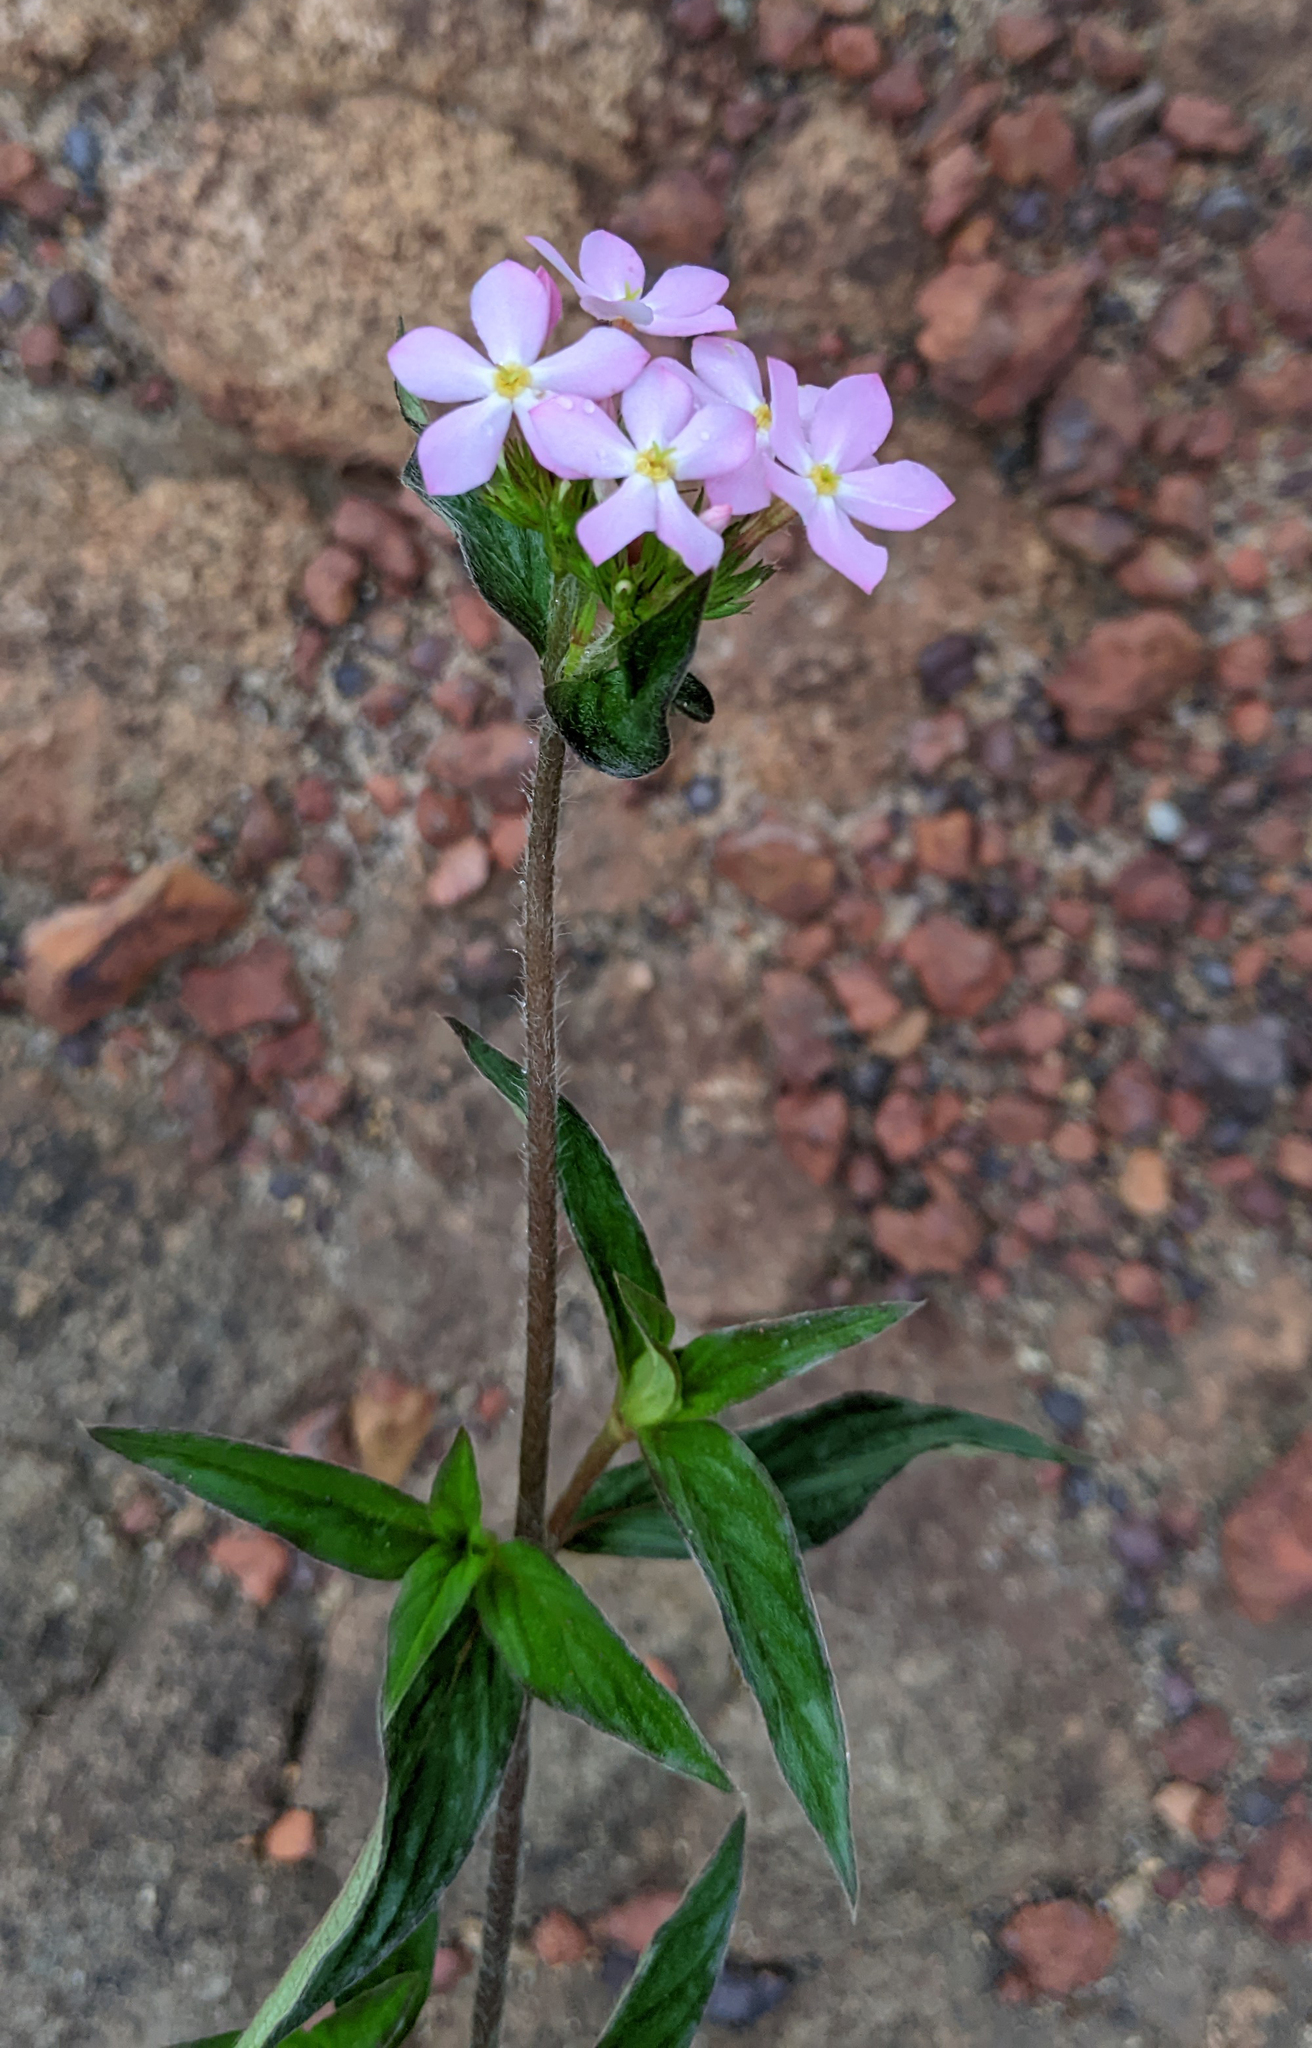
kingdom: Plantae
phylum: Tracheophyta
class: Magnoliopsida
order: Gentianales
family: Rubiaceae
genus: Sipanea
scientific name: Sipanea pratensis
